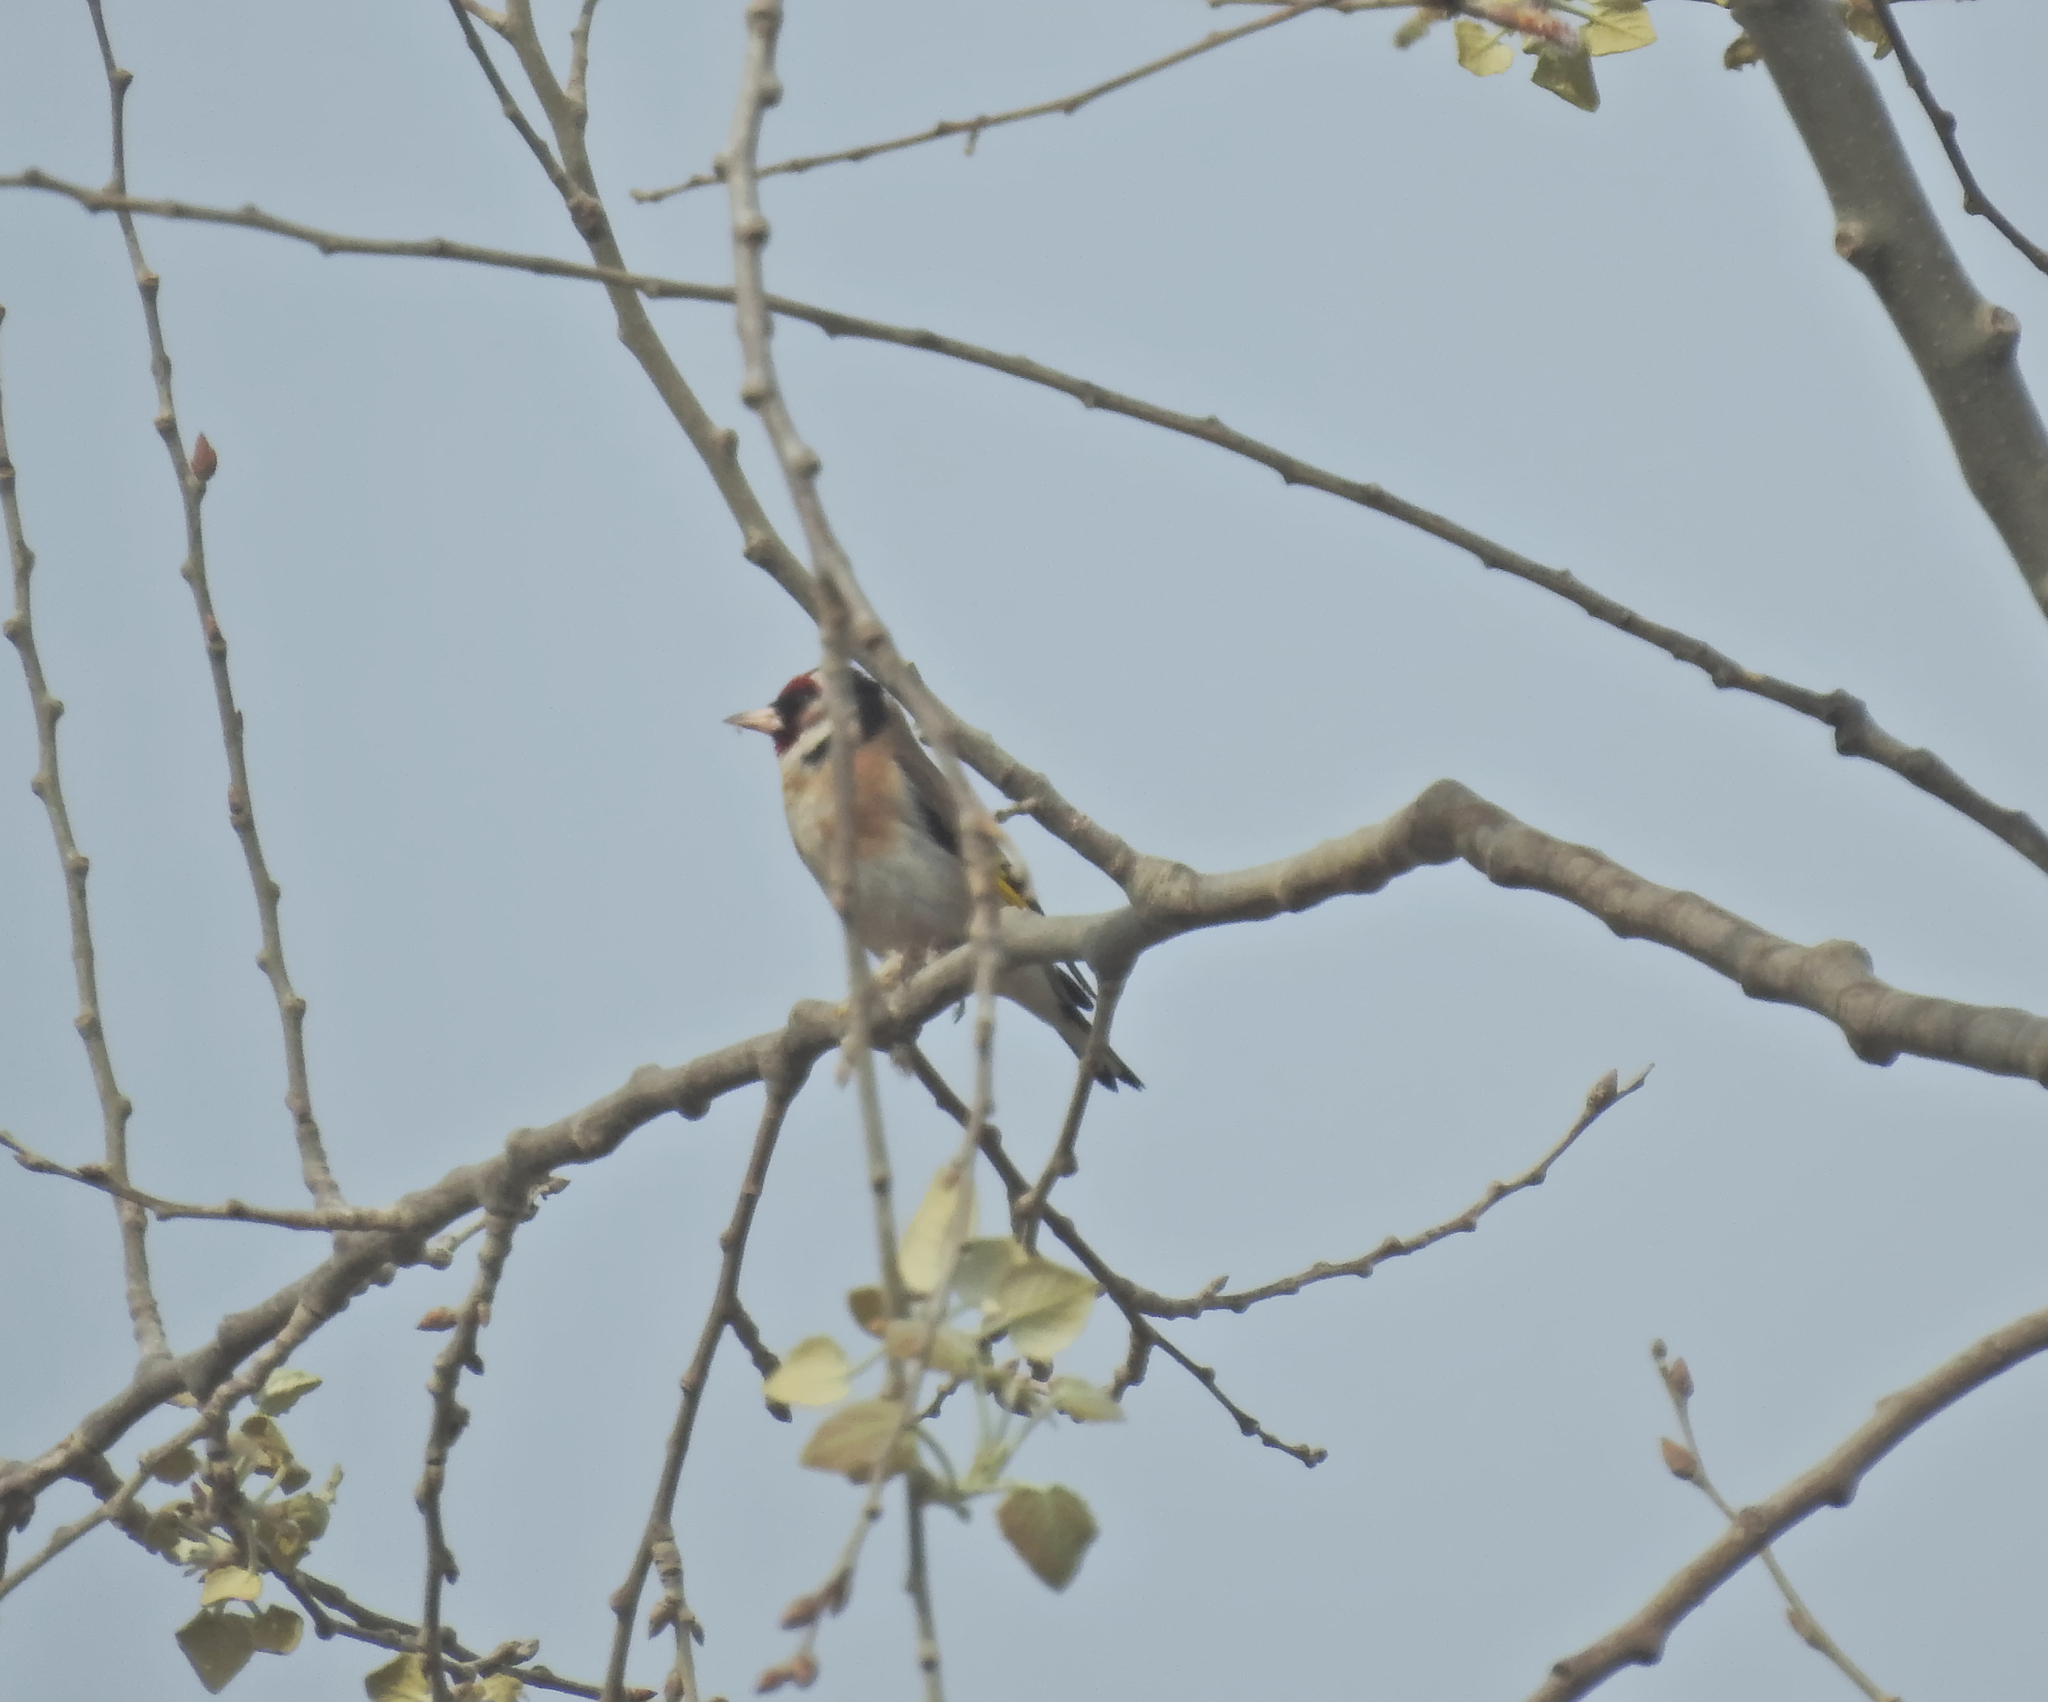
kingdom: Animalia
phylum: Chordata
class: Aves
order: Passeriformes
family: Fringillidae
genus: Carduelis
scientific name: Carduelis carduelis
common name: European goldfinch
